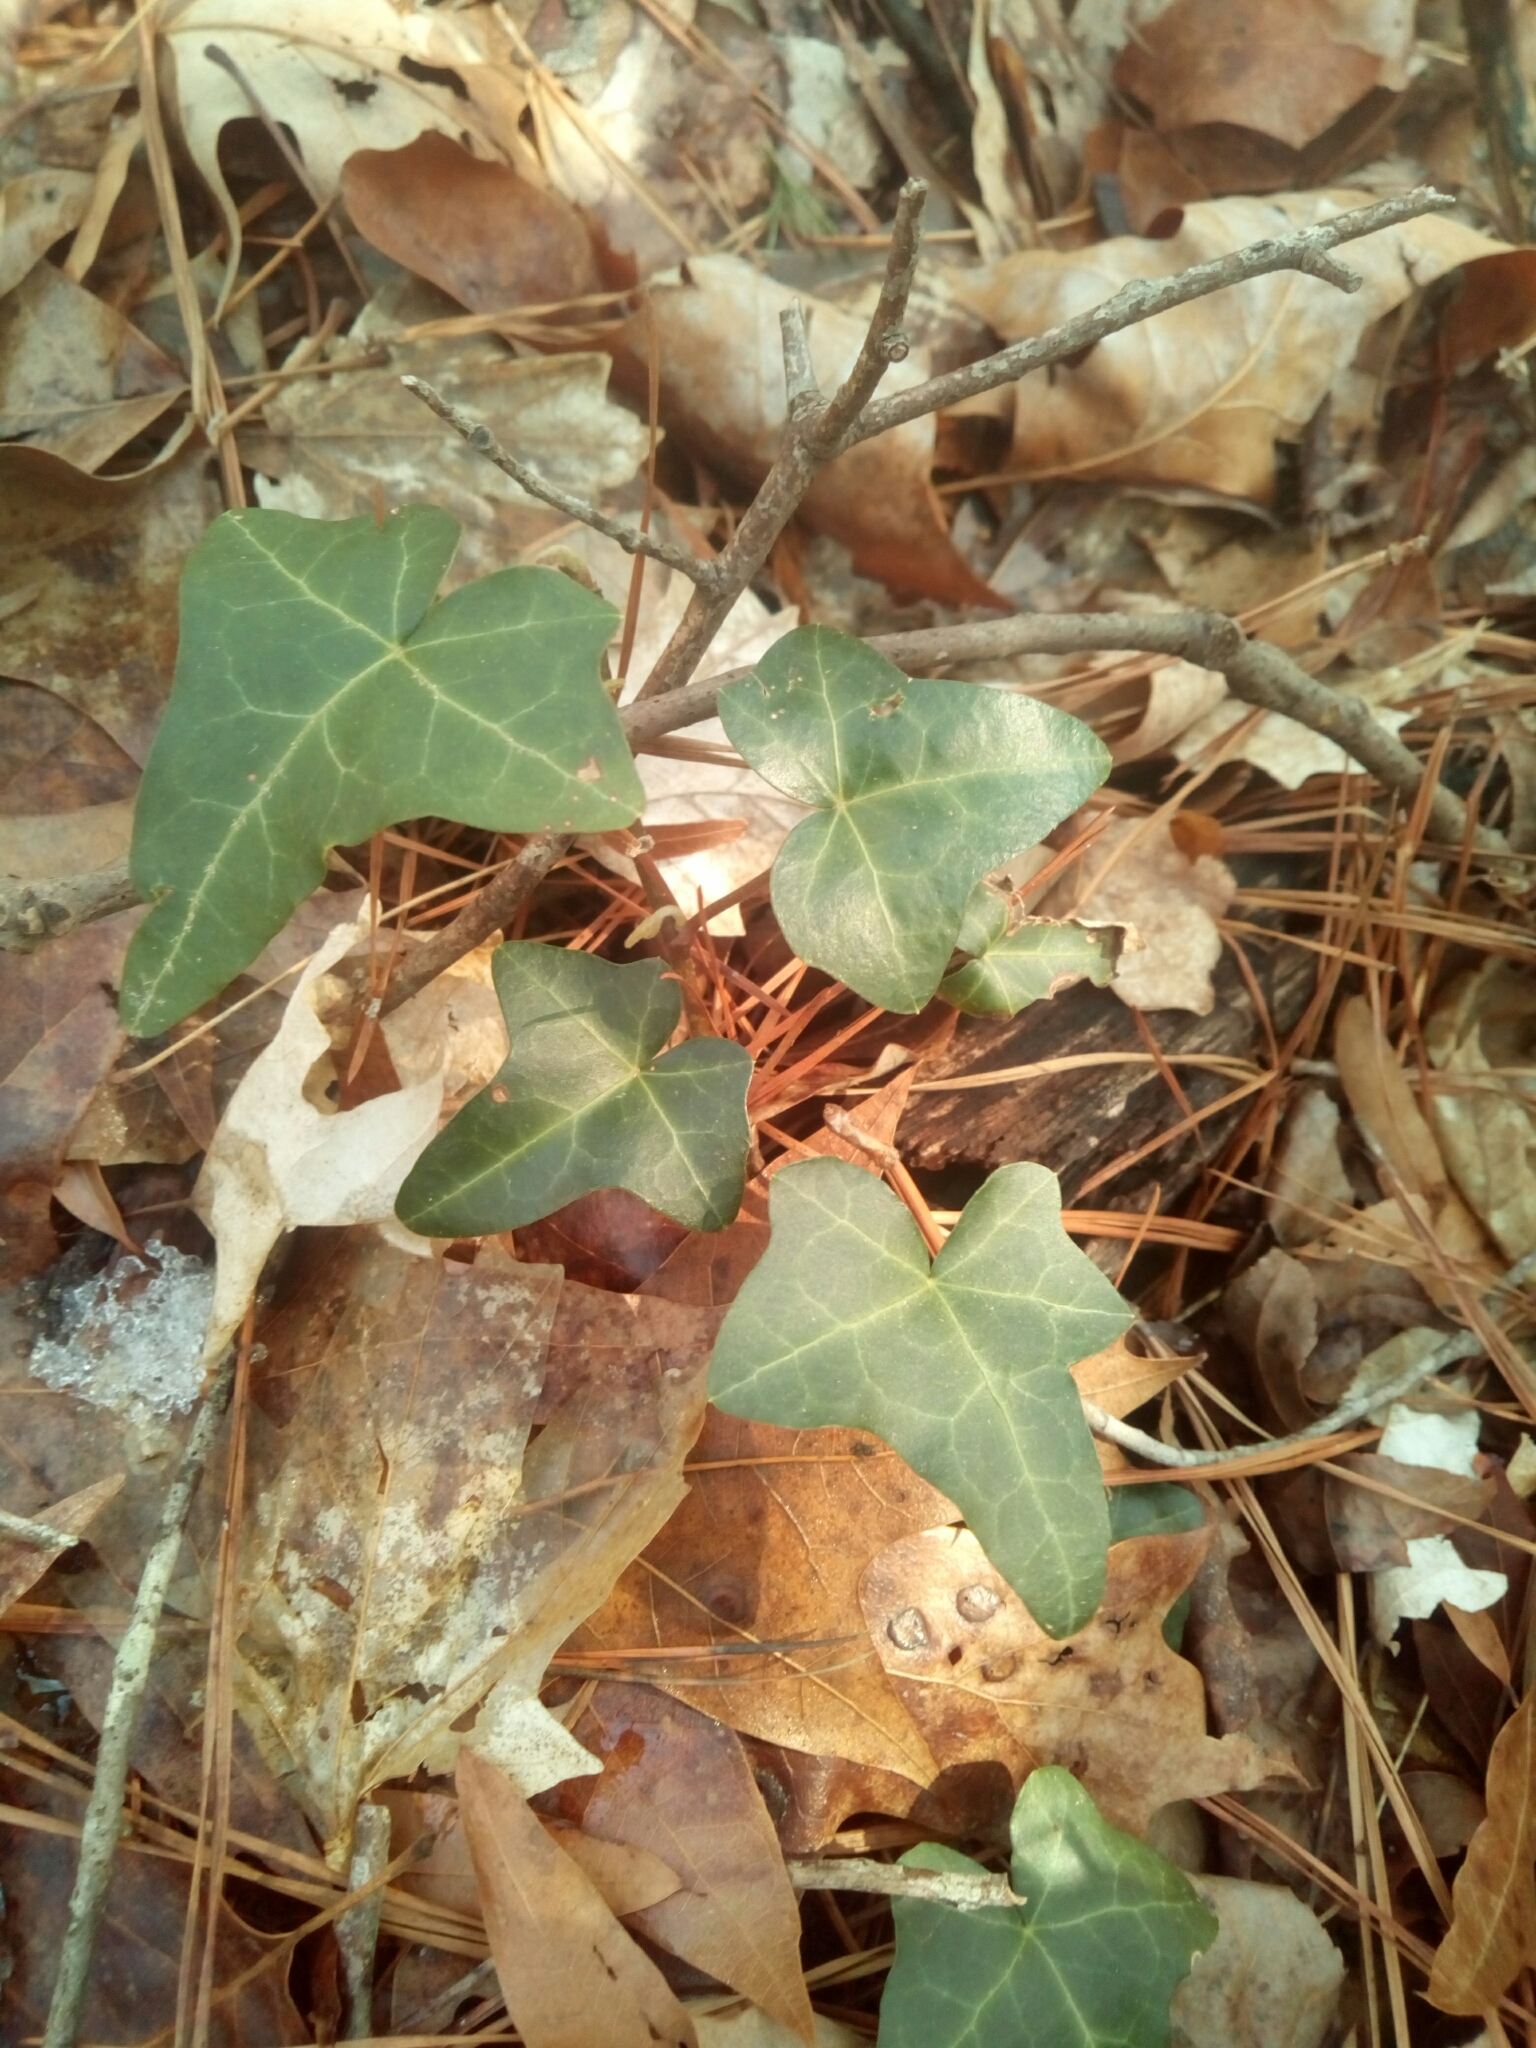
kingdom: Plantae
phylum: Tracheophyta
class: Magnoliopsida
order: Apiales
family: Araliaceae
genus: Hedera
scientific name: Hedera helix
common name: Ivy
